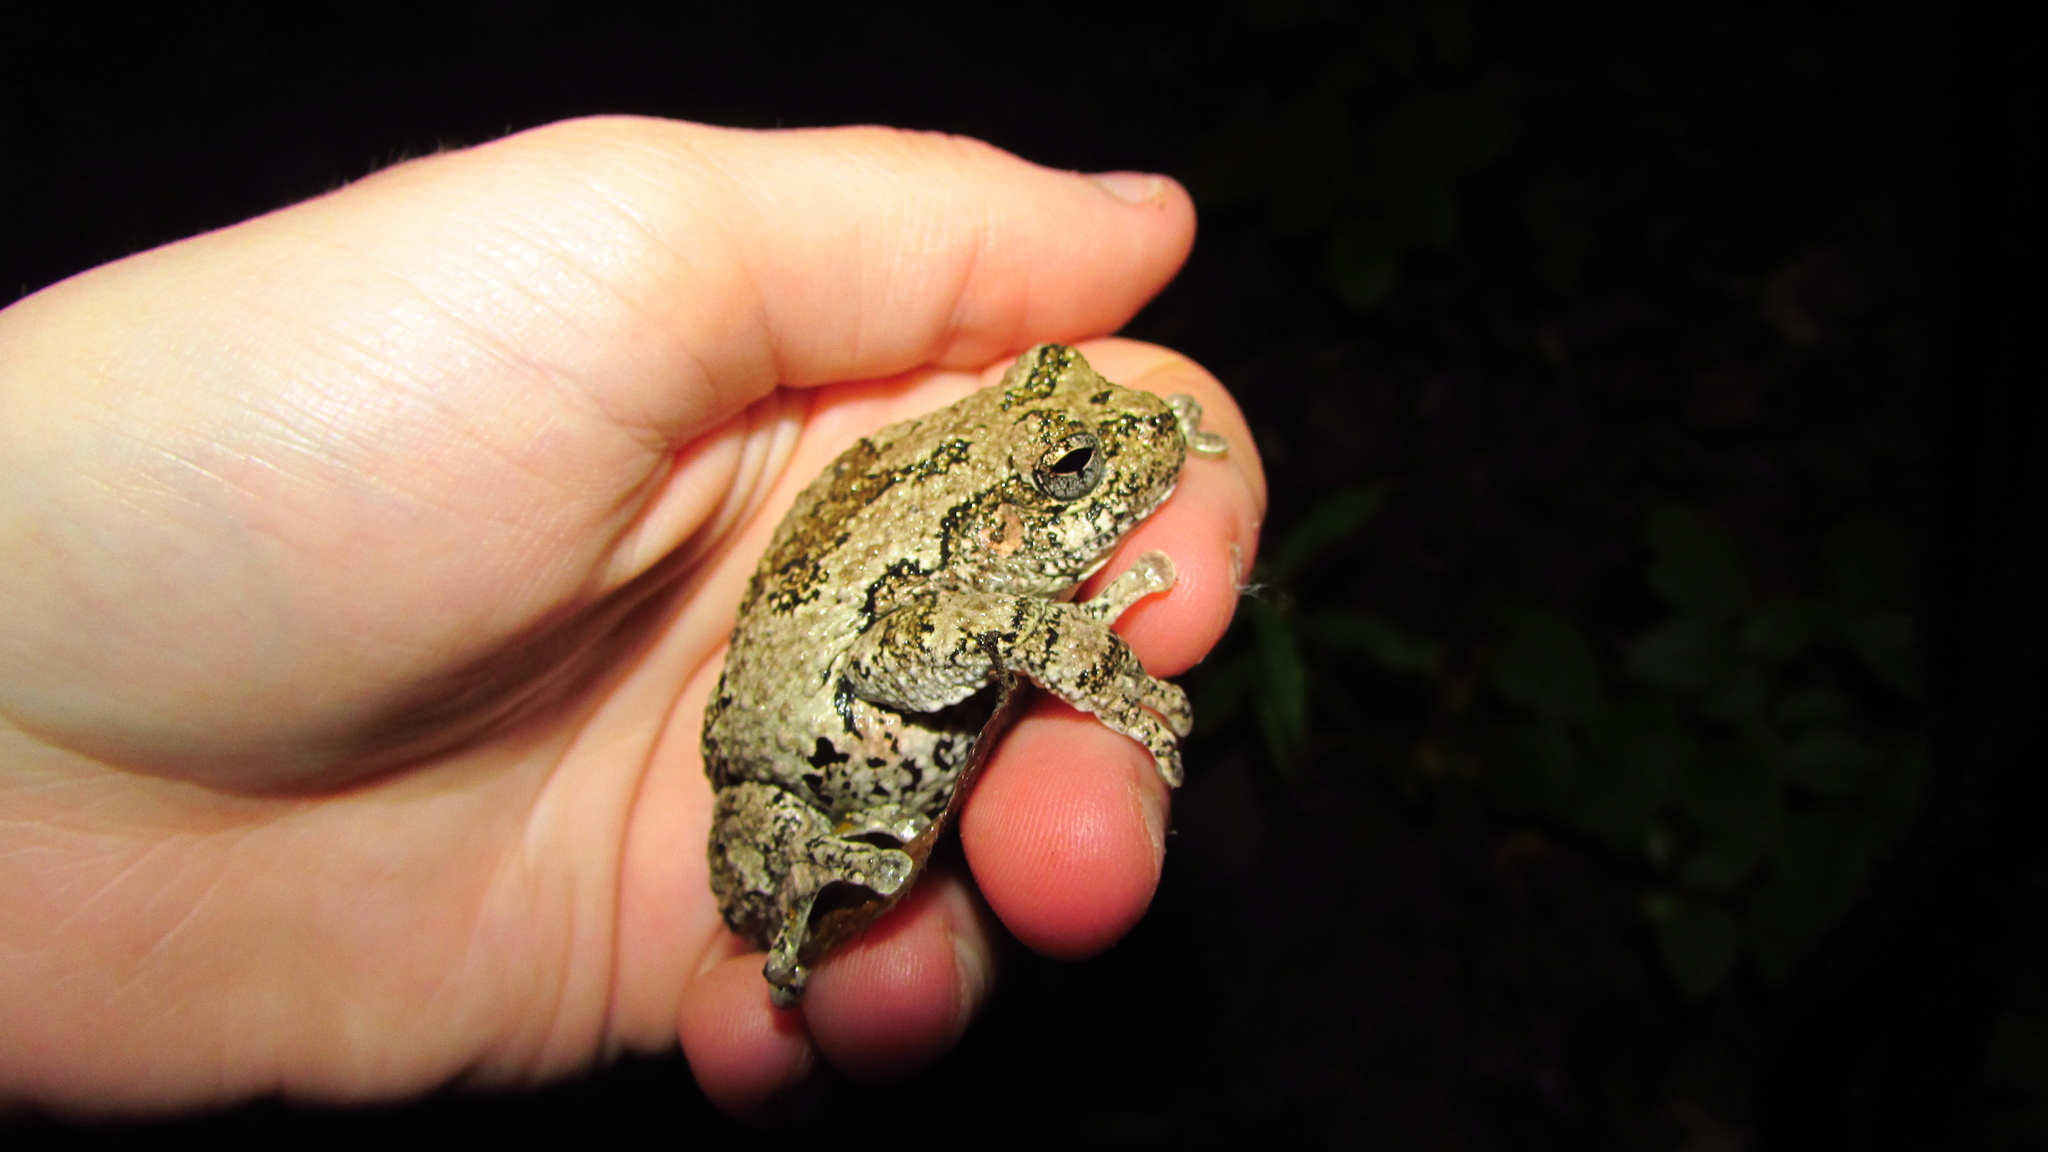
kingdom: Animalia
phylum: Chordata
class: Amphibia
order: Anura
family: Hylidae
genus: Dryophytes
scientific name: Dryophytes versicolor
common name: Gray treefrog
